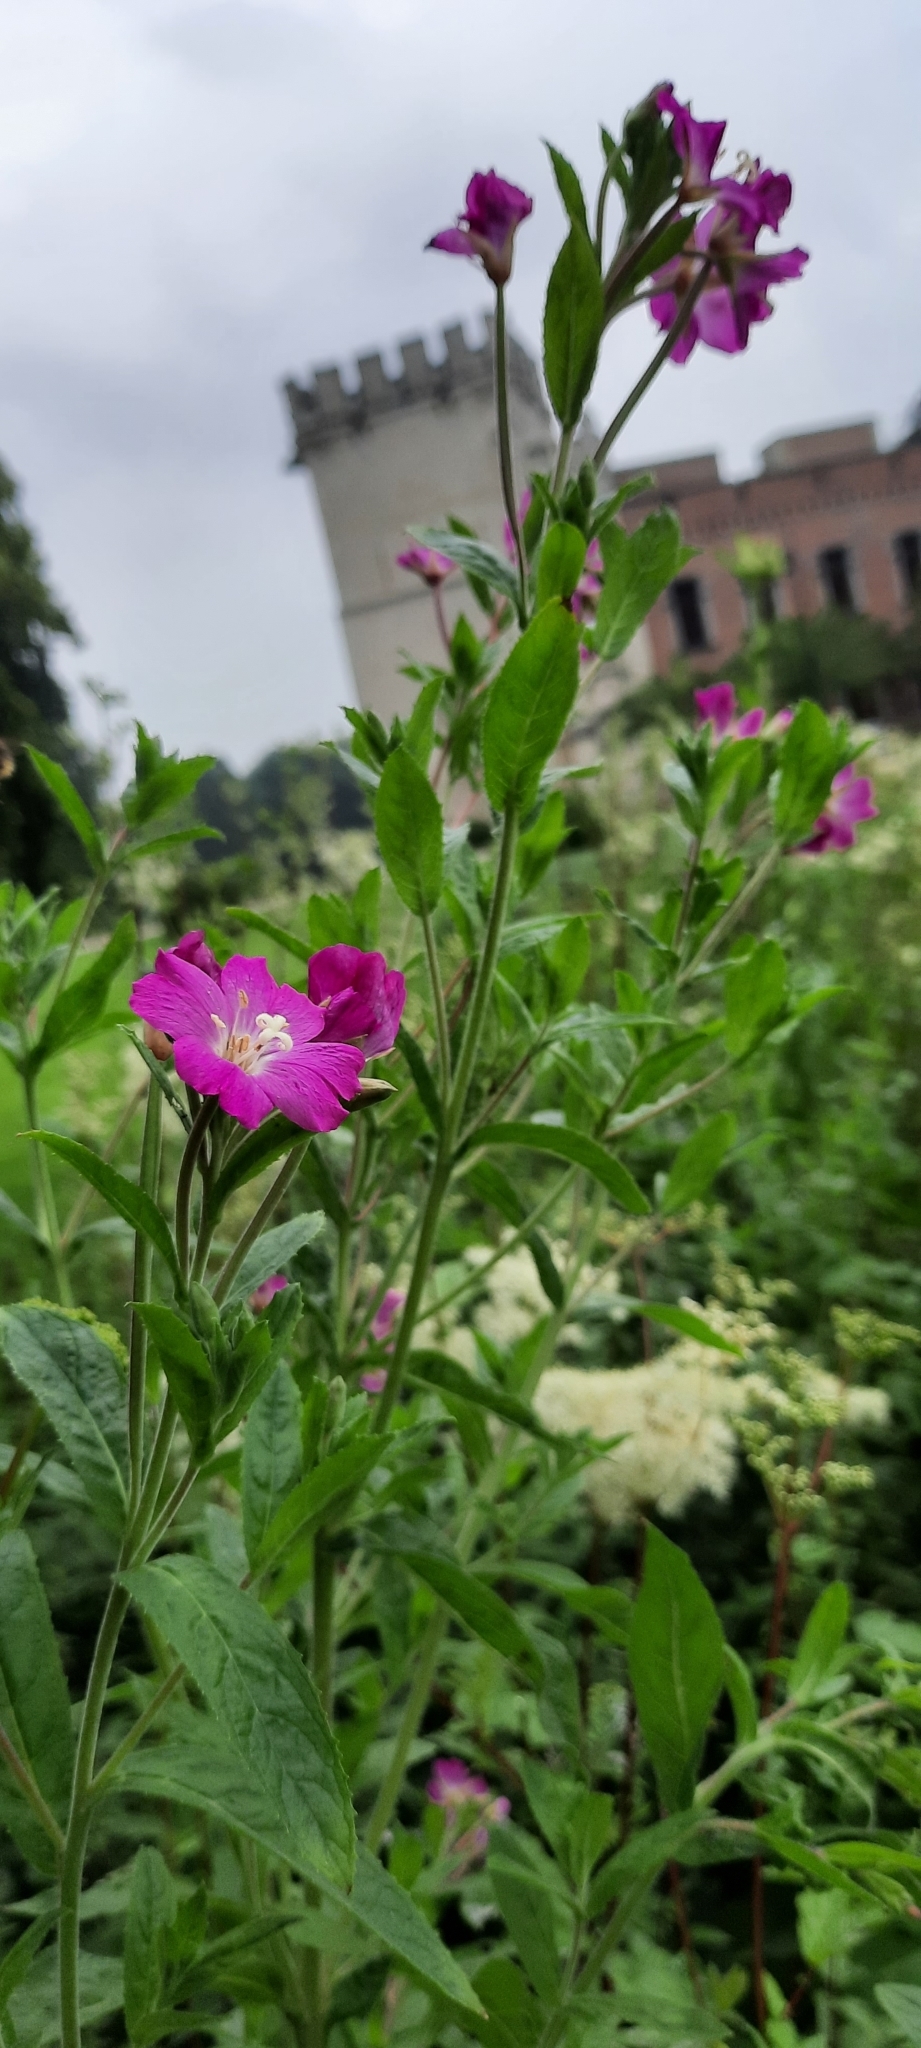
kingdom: Plantae
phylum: Tracheophyta
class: Magnoliopsida
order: Myrtales
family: Onagraceae
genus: Epilobium
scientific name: Epilobium hirsutum
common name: Great willowherb
